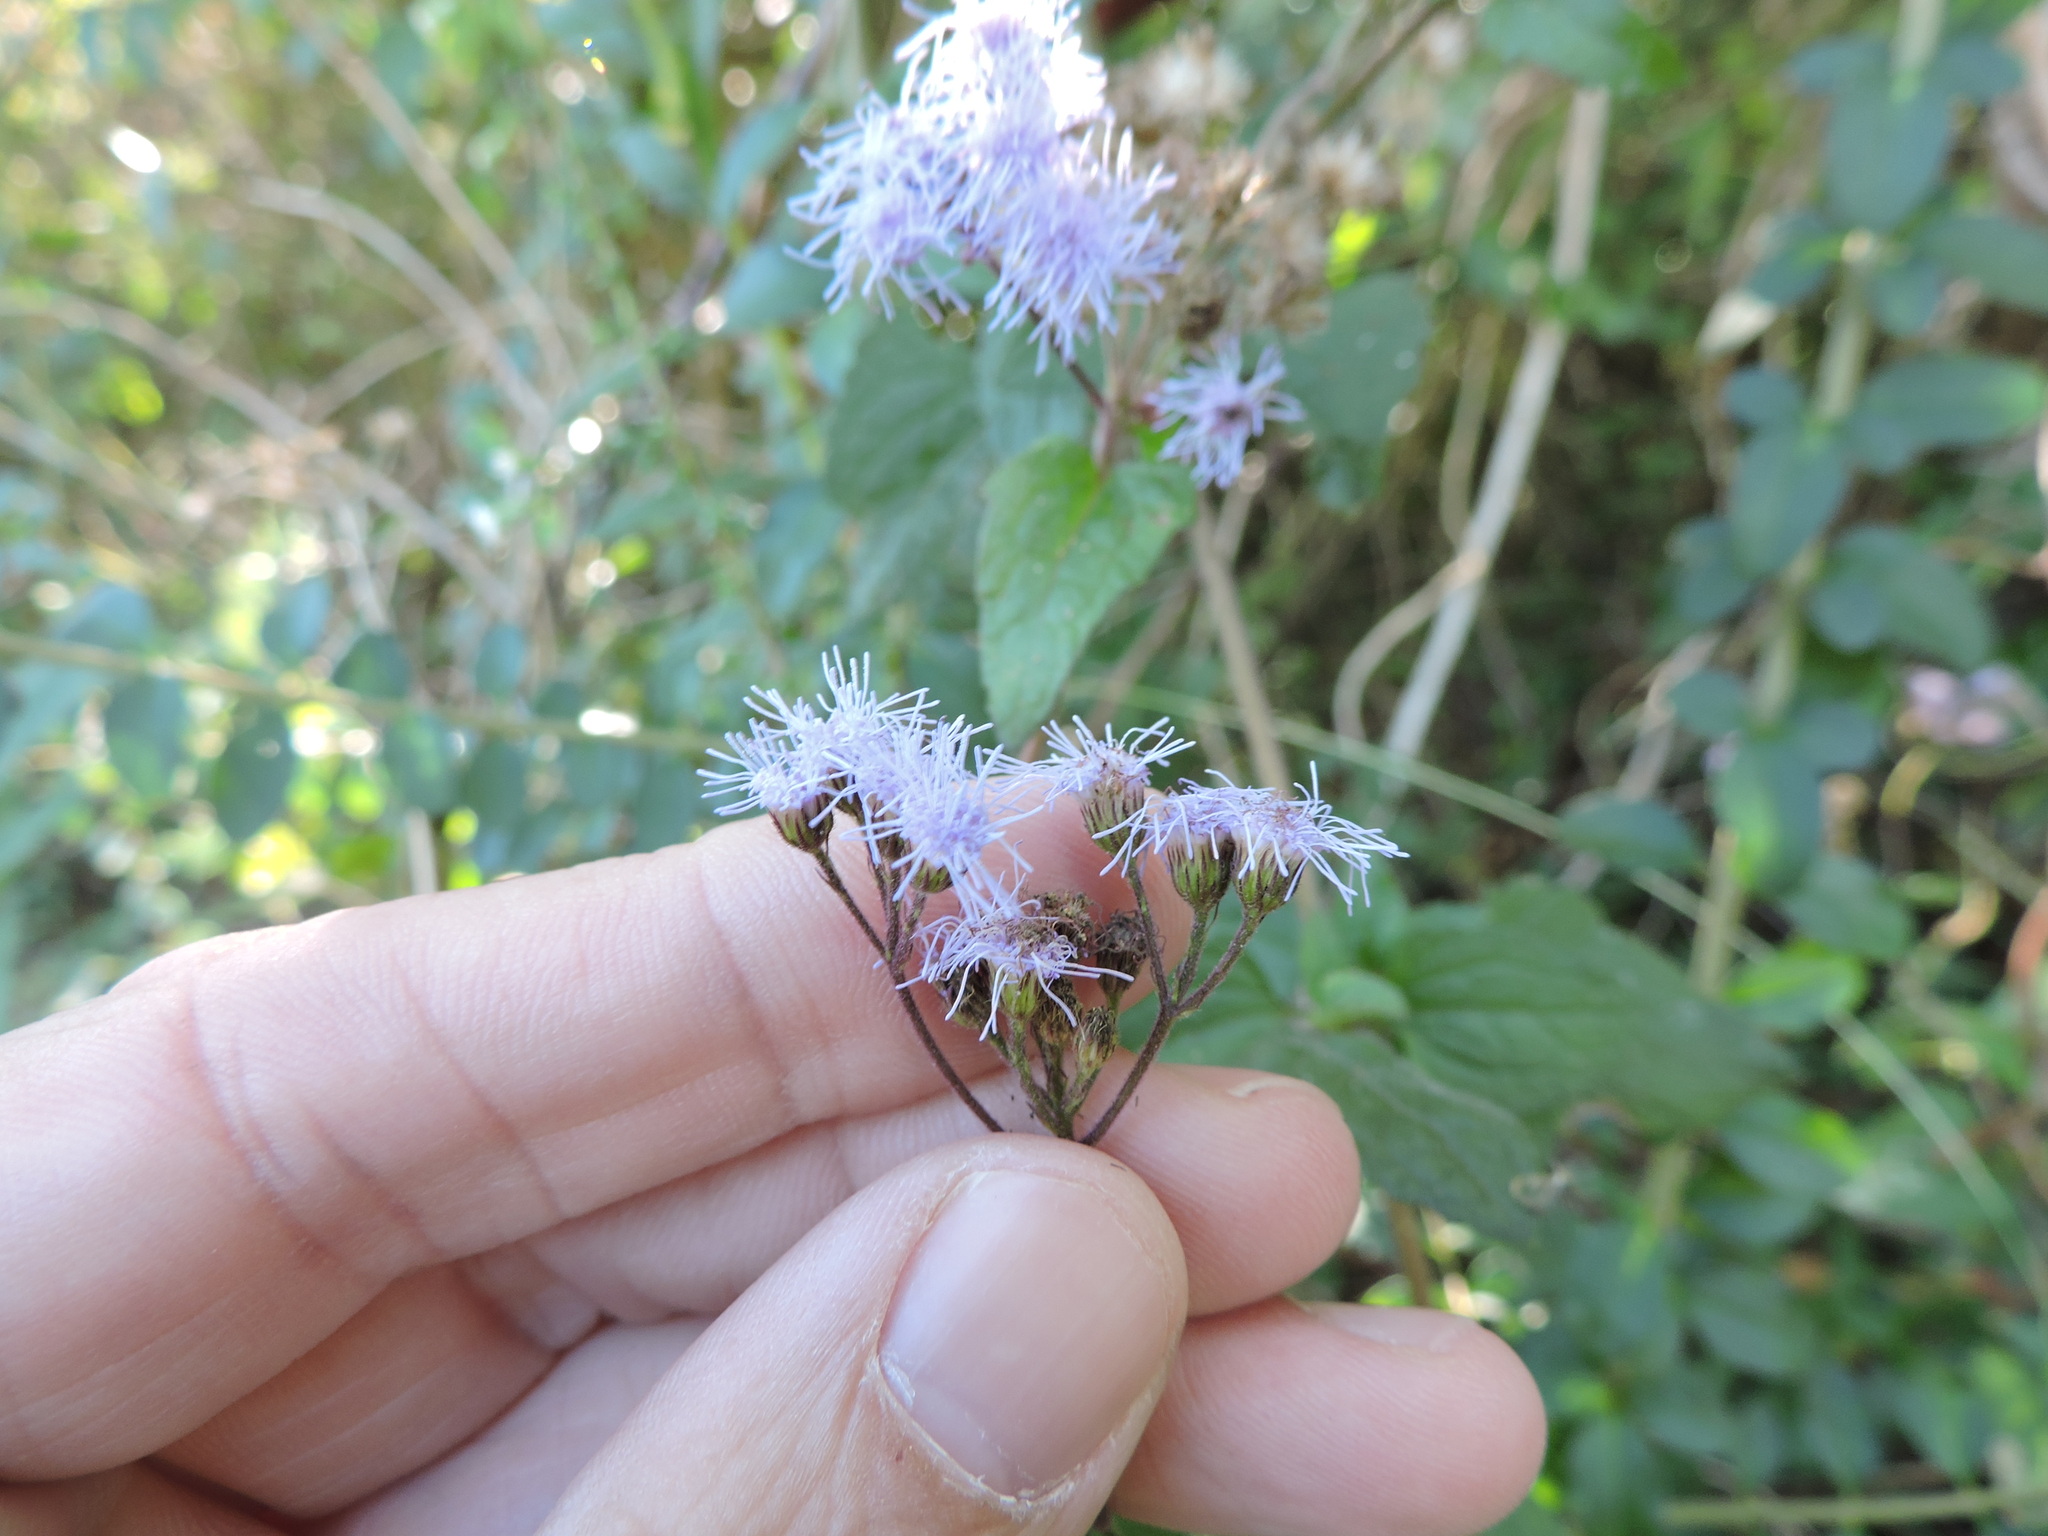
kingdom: Plantae
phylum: Tracheophyta
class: Magnoliopsida
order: Asterales
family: Asteraceae
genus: Conoclinium
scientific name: Conoclinium coelestinum
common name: Blue mistflower
